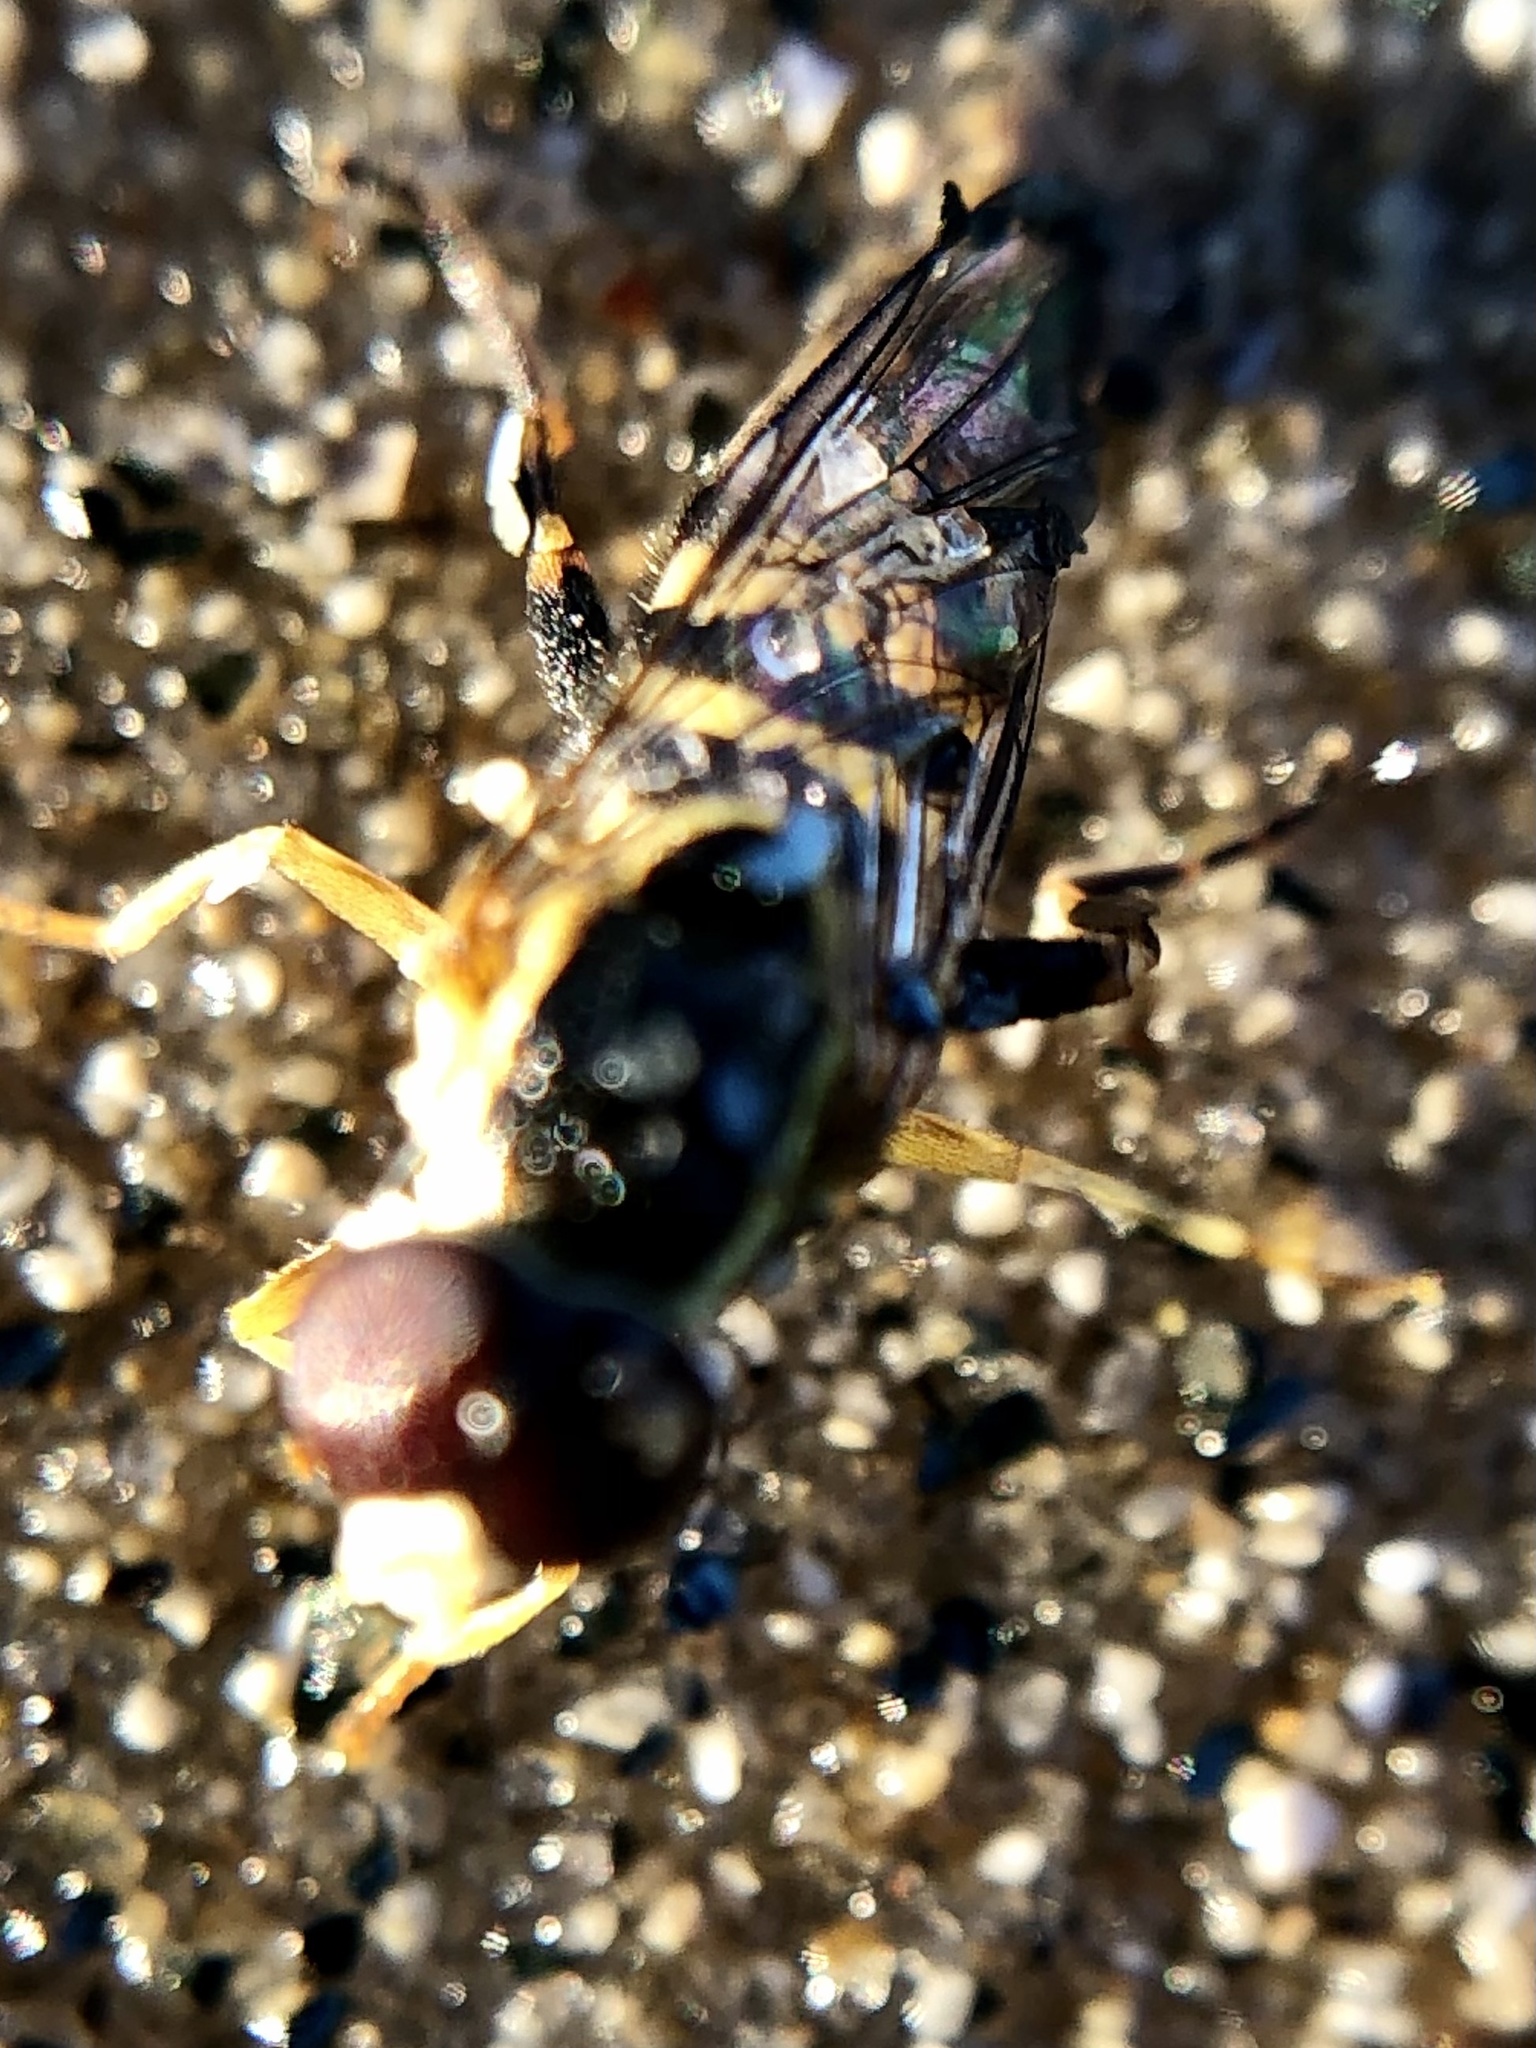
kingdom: Animalia
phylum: Arthropoda
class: Insecta
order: Diptera
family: Syrphidae
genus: Toxomerus
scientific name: Toxomerus geminatus
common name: Eastern calligrapher
